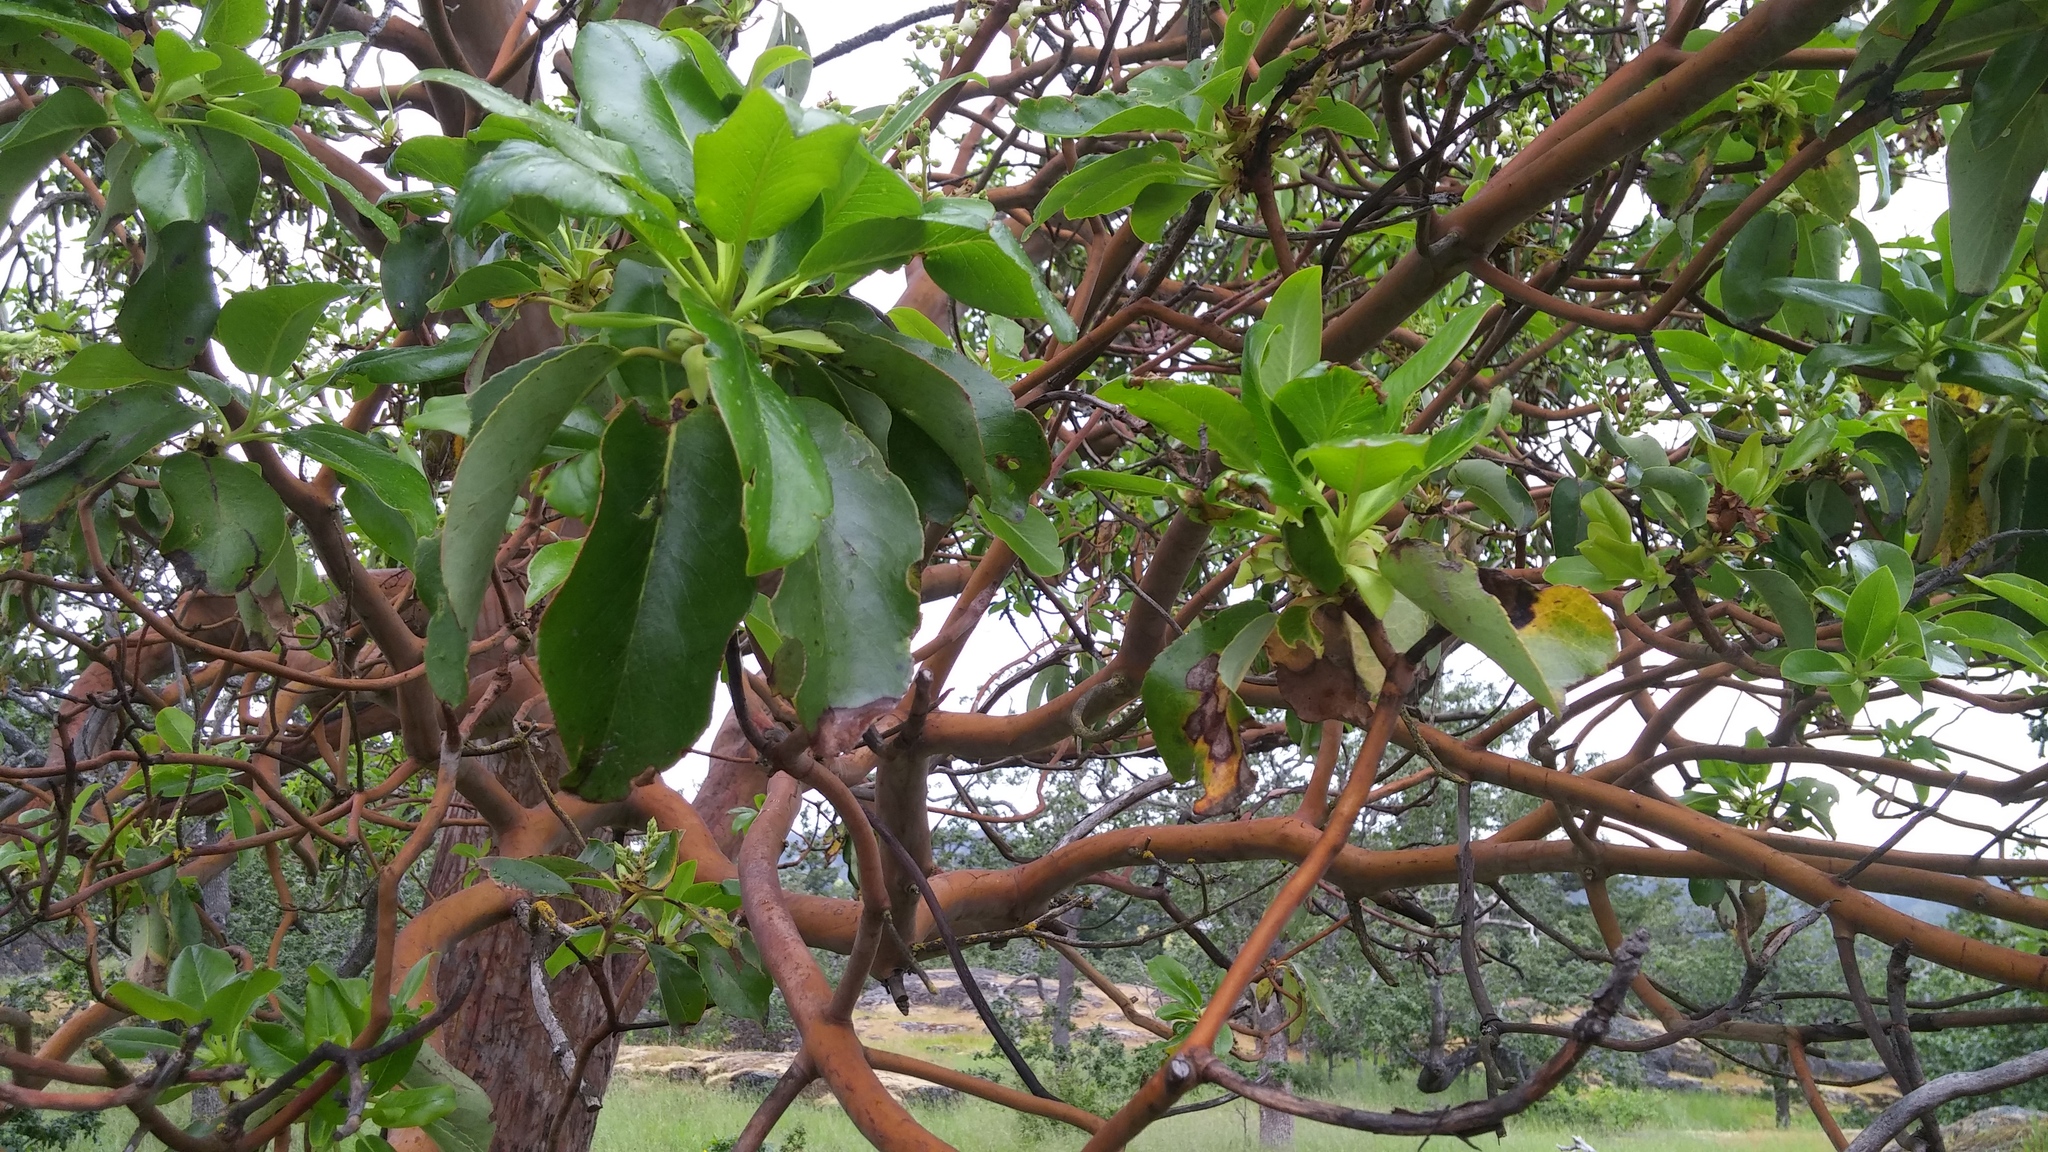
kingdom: Plantae
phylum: Tracheophyta
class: Magnoliopsida
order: Ericales
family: Ericaceae
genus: Arbutus
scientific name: Arbutus menziesii
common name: Pacific madrone
